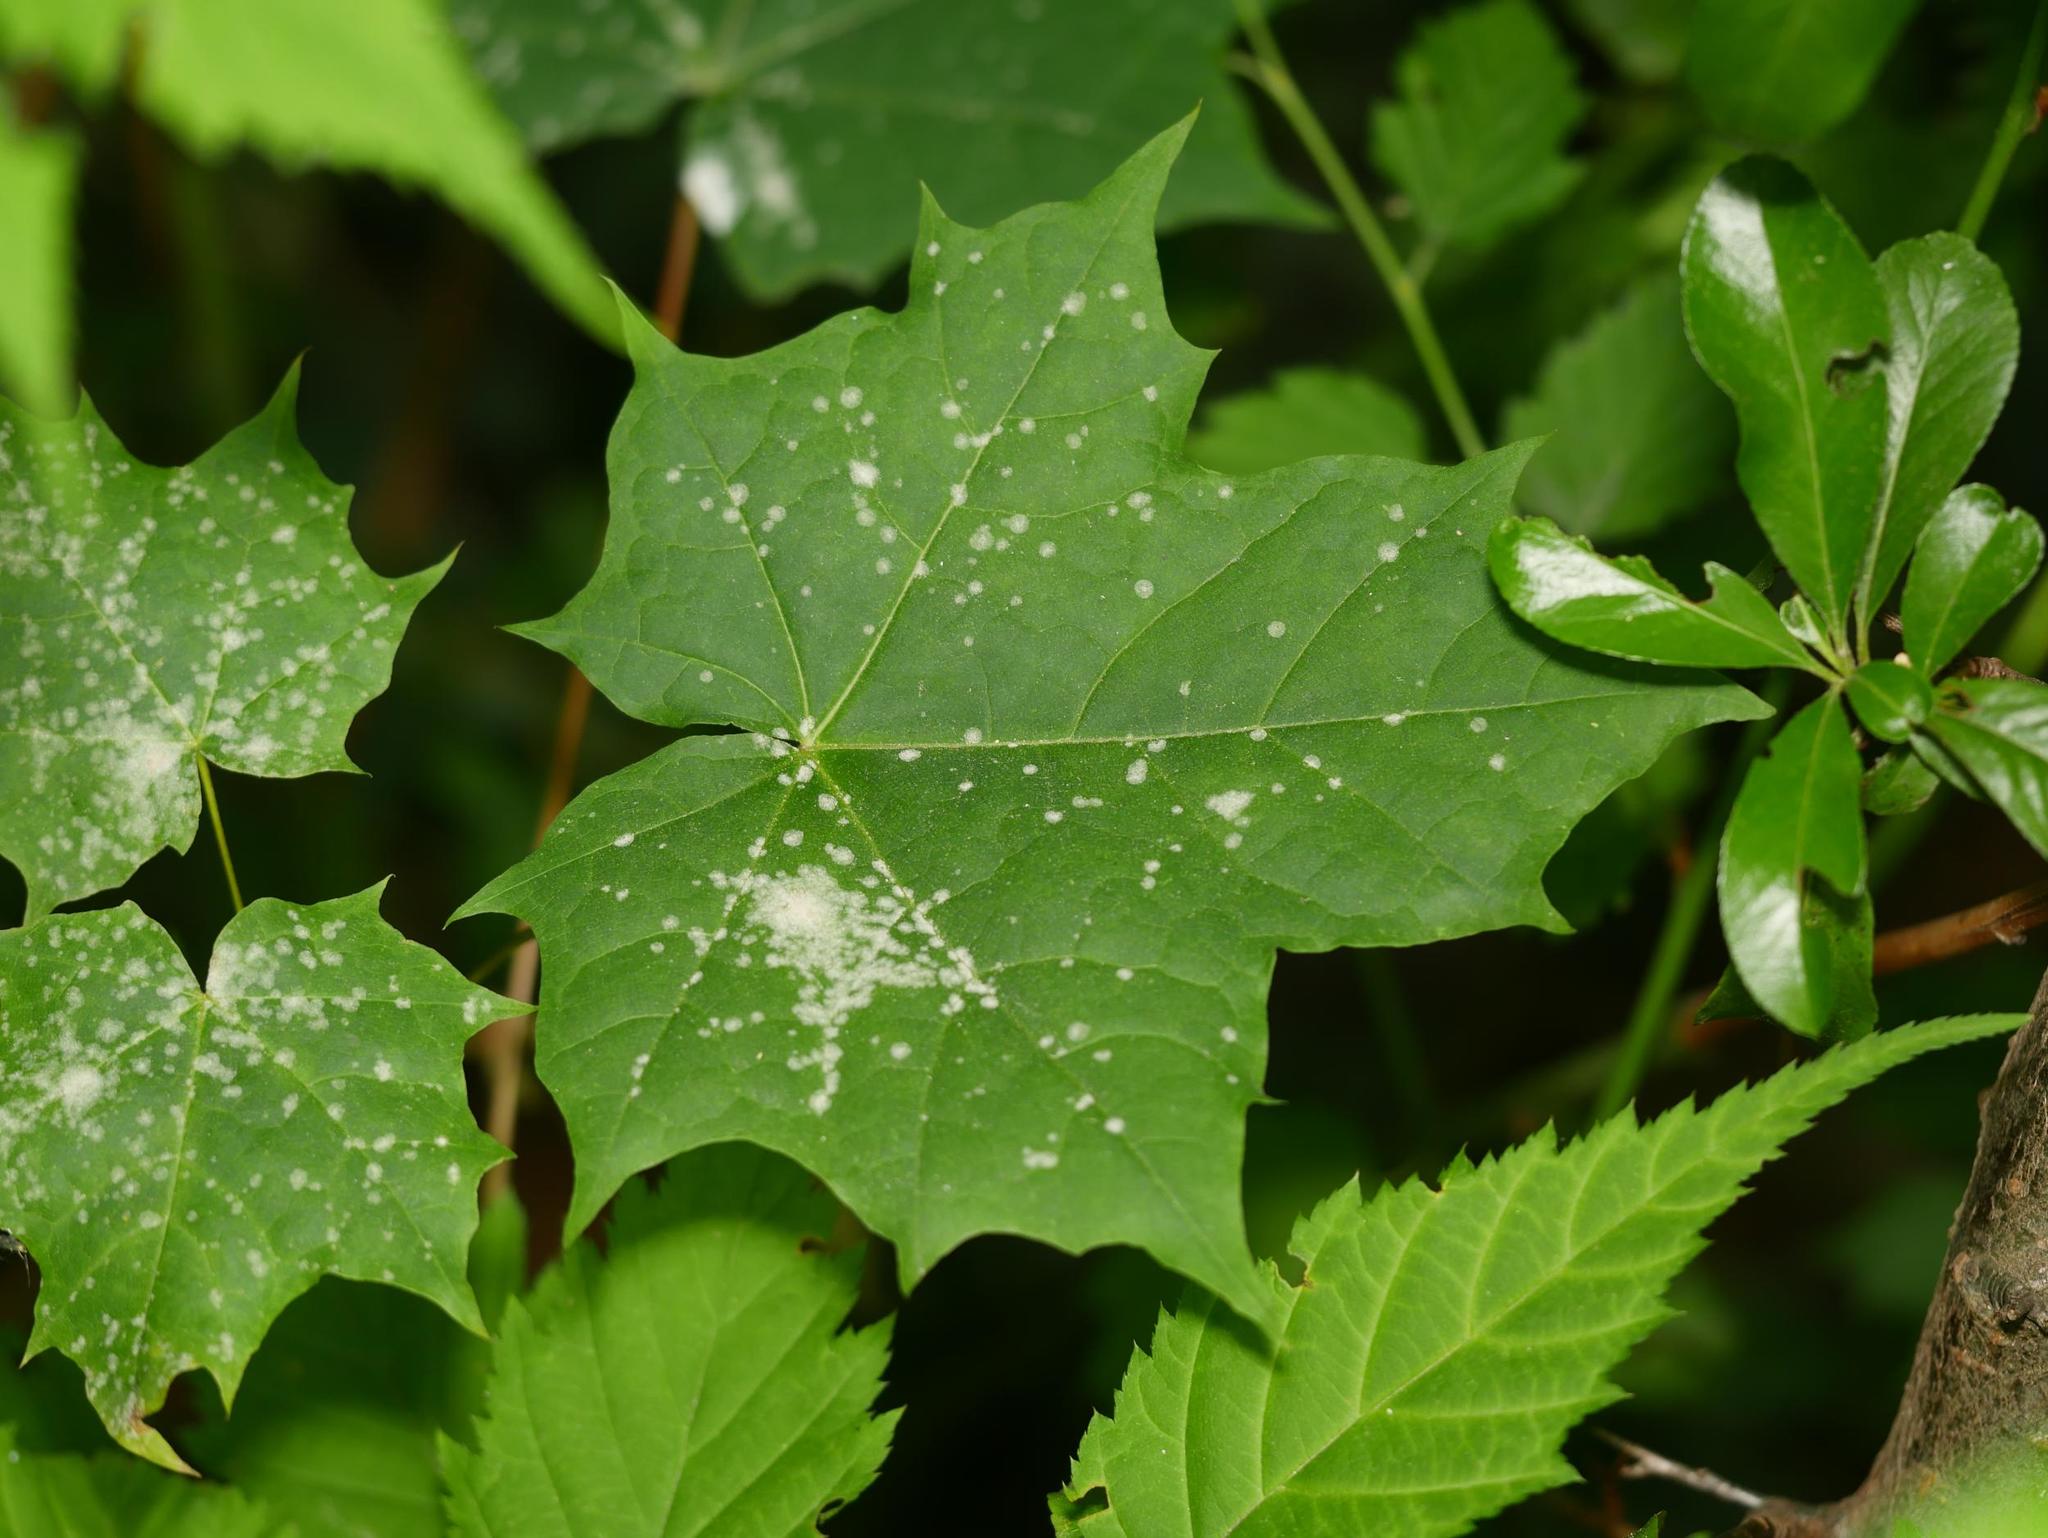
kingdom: Plantae
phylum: Tracheophyta
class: Magnoliopsida
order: Sapindales
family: Sapindaceae
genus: Acer
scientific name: Acer platanoides
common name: Norway maple
